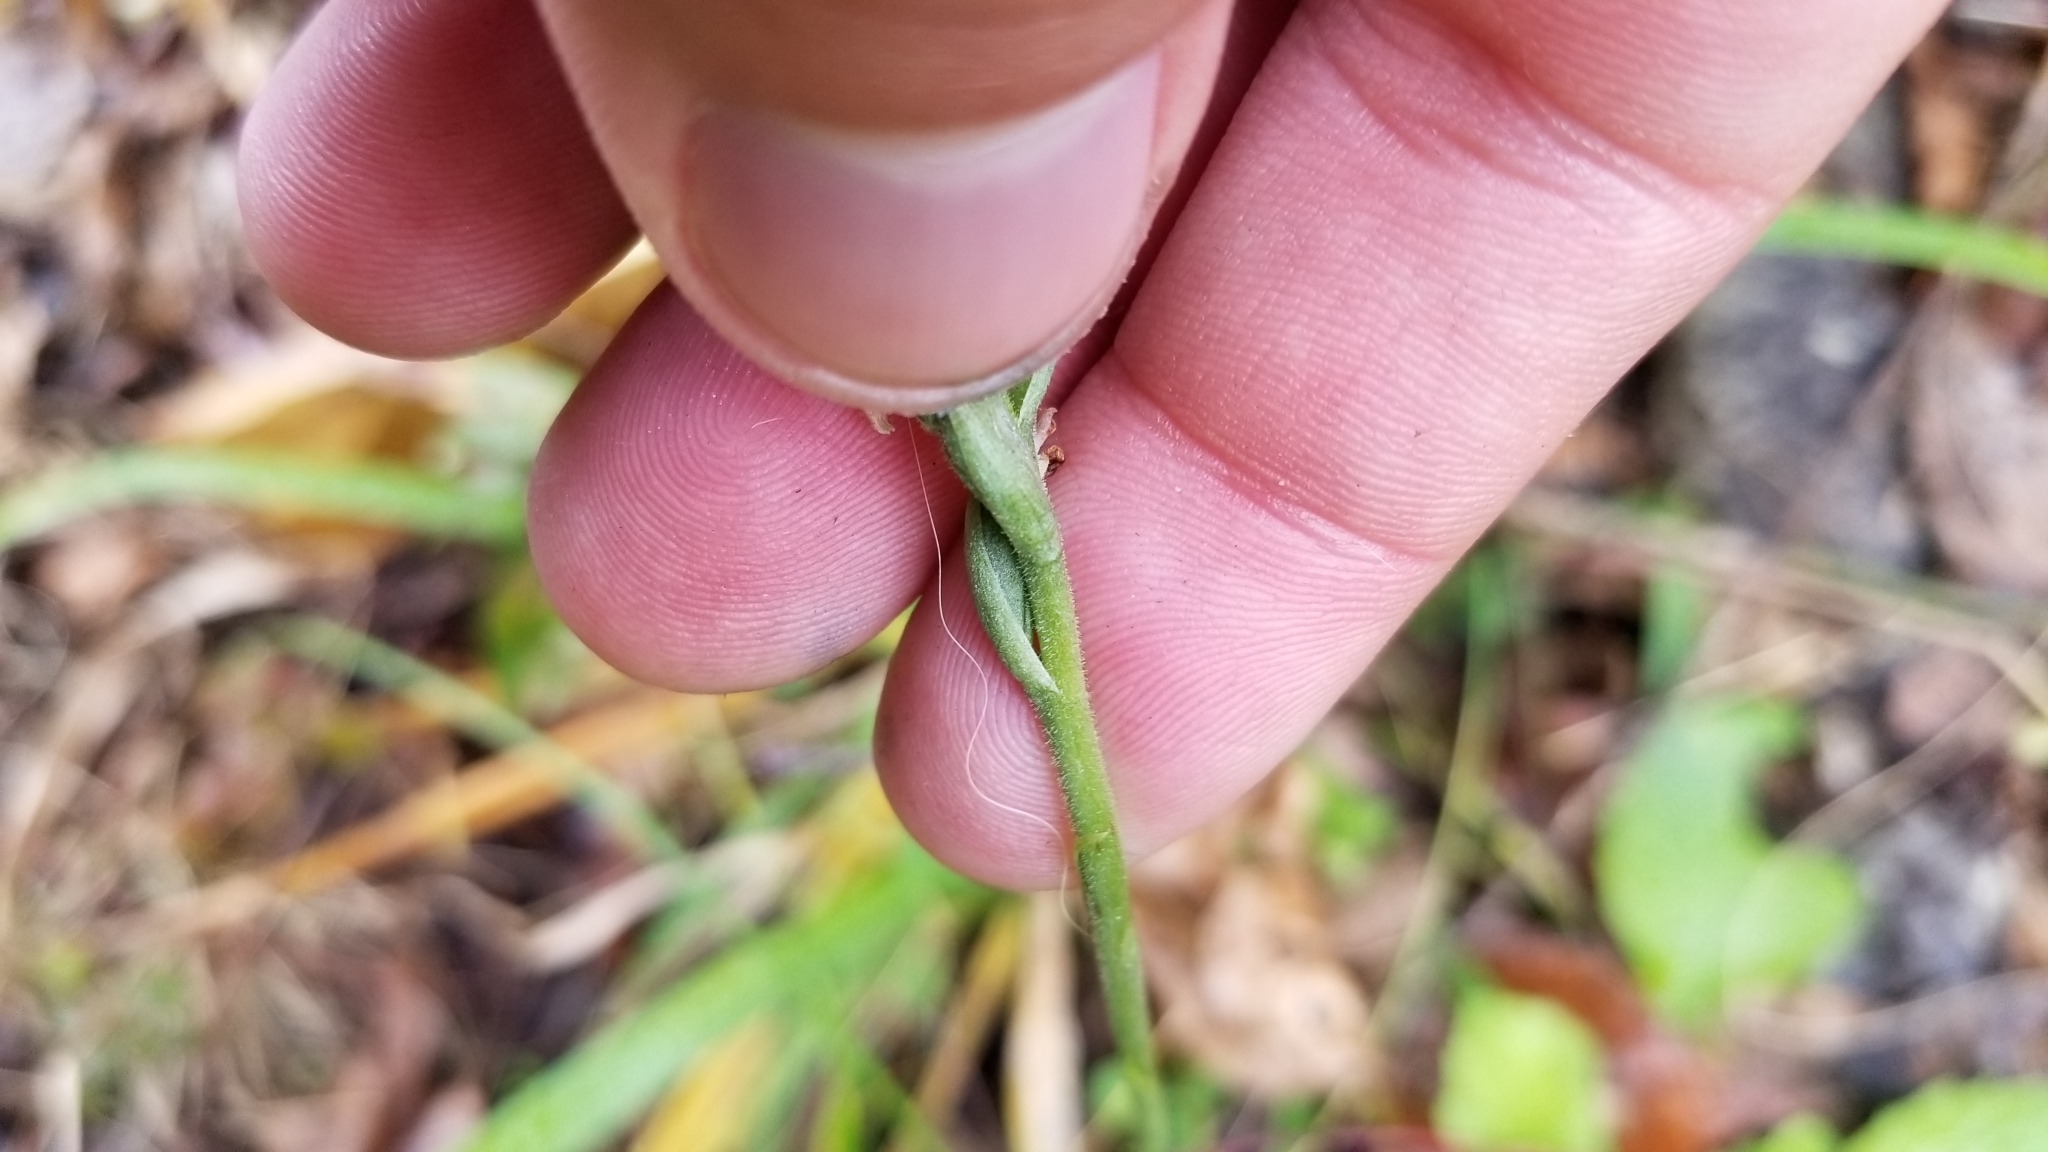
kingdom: Plantae
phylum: Tracheophyta
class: Liliopsida
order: Asparagales
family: Orchidaceae
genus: Spiranthes
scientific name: Spiranthes ovalis
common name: October ladies'-tresses
